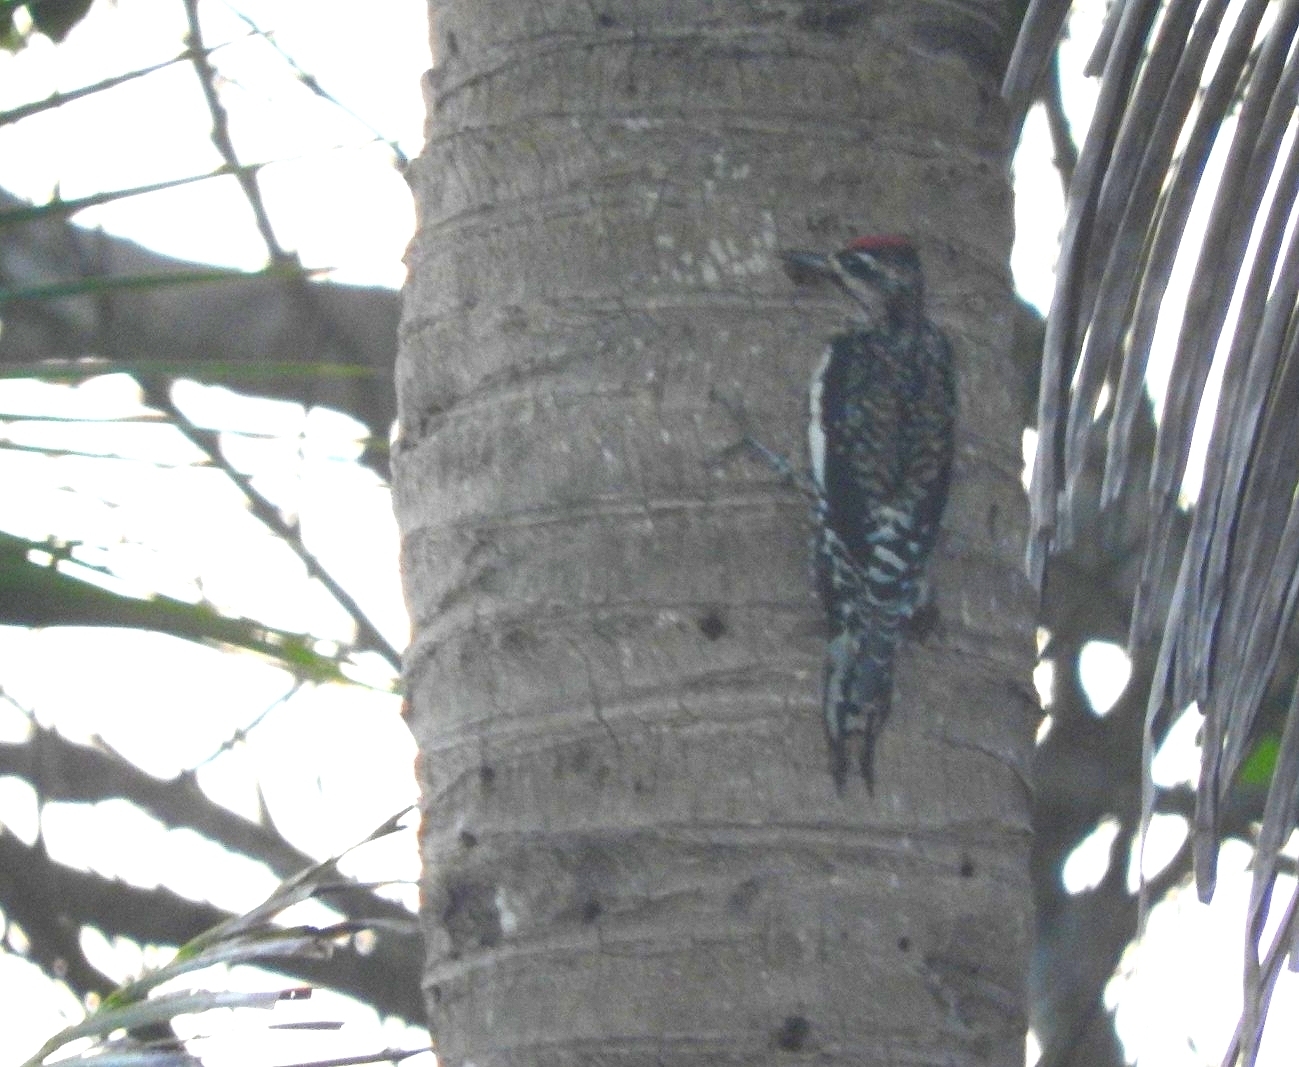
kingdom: Animalia
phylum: Chordata
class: Aves
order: Piciformes
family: Picidae
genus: Sphyrapicus
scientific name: Sphyrapicus varius
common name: Yellow-bellied sapsucker
